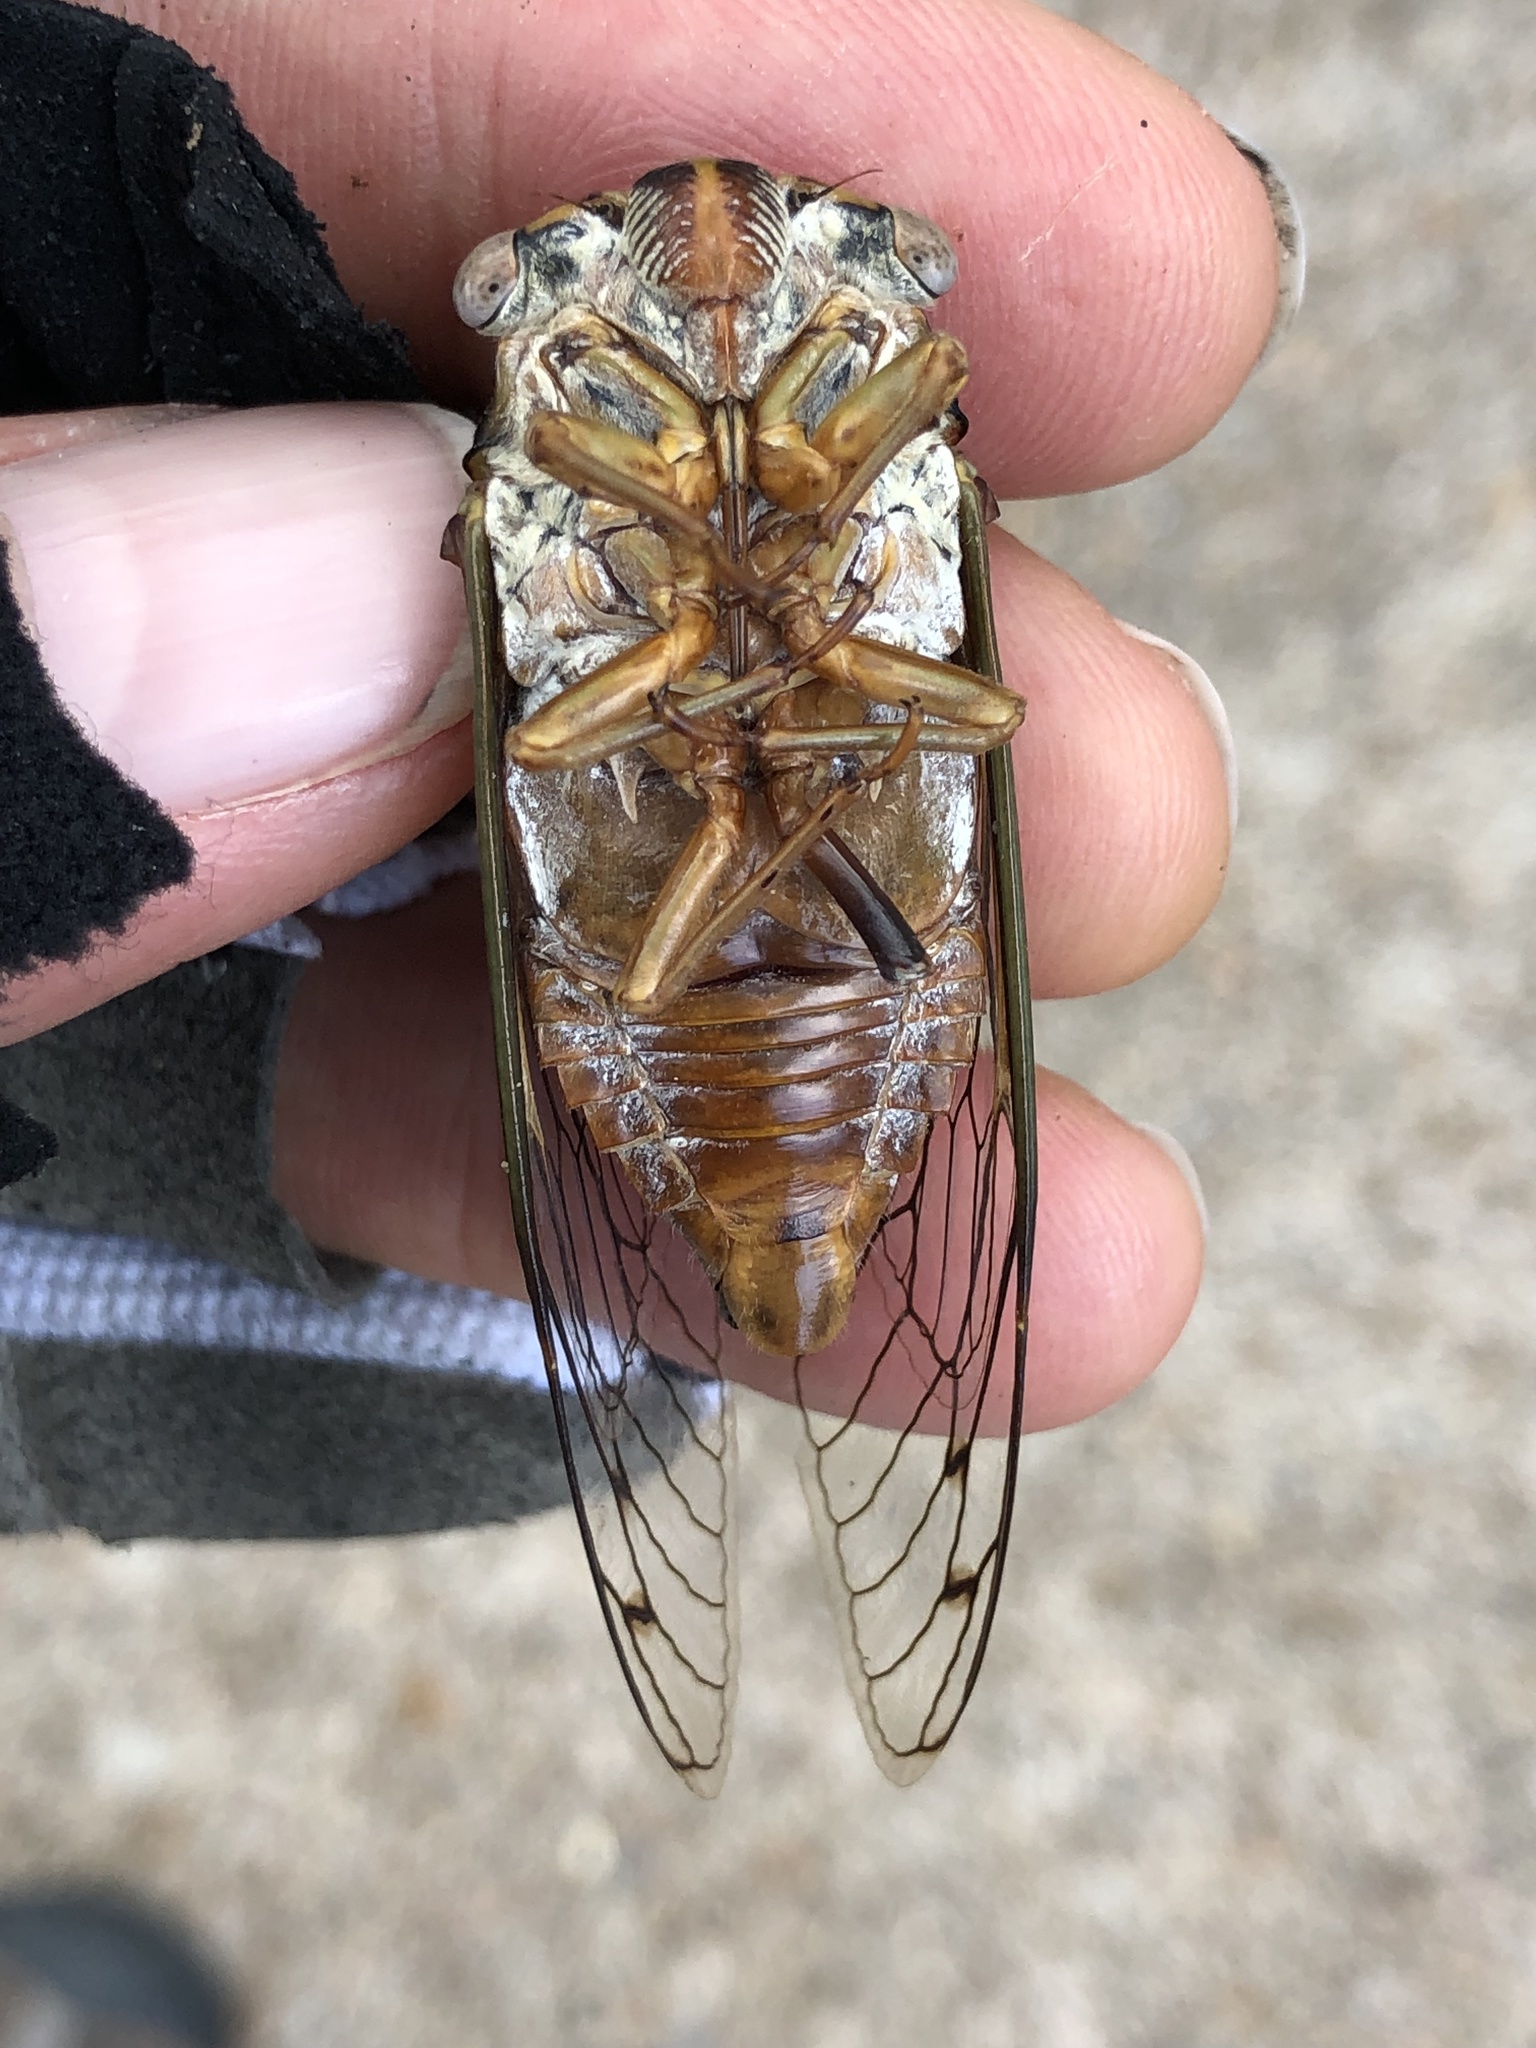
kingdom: Animalia
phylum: Arthropoda
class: Insecta
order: Hemiptera
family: Cicadidae
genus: Megatibicen
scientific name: Megatibicen resh
